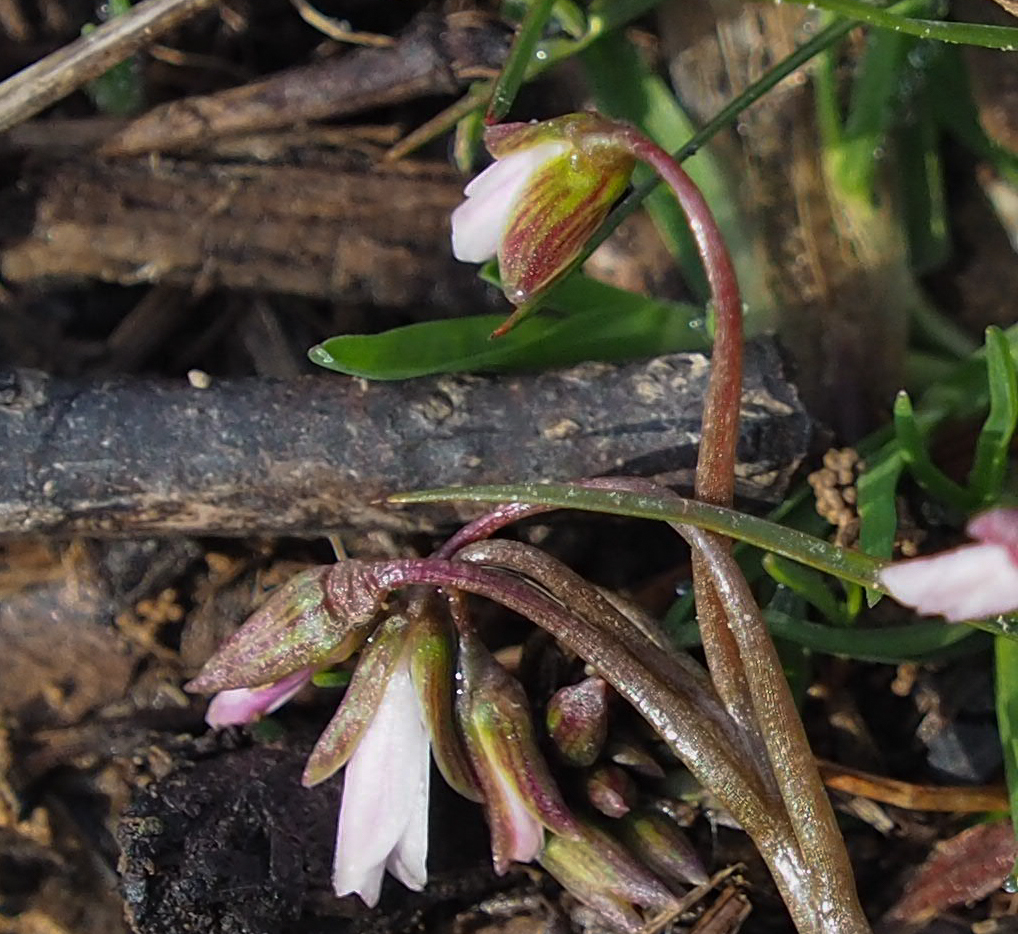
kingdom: Plantae
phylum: Tracheophyta
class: Magnoliopsida
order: Caryophyllales
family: Montiaceae
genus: Claytonia
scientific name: Claytonia virginica
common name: Virginia springbeauty
